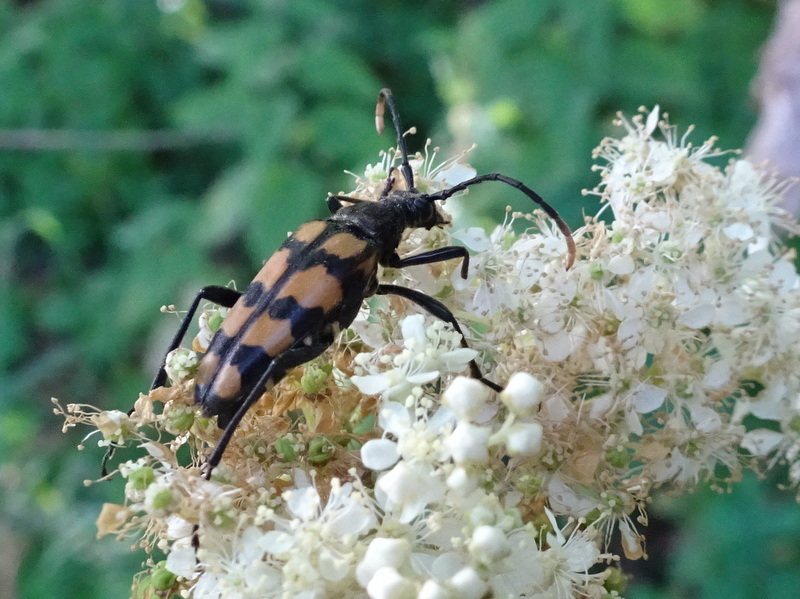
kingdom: Animalia
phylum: Arthropoda
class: Insecta
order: Coleoptera
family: Cerambycidae
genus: Leptura
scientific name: Leptura quadrifasciata
